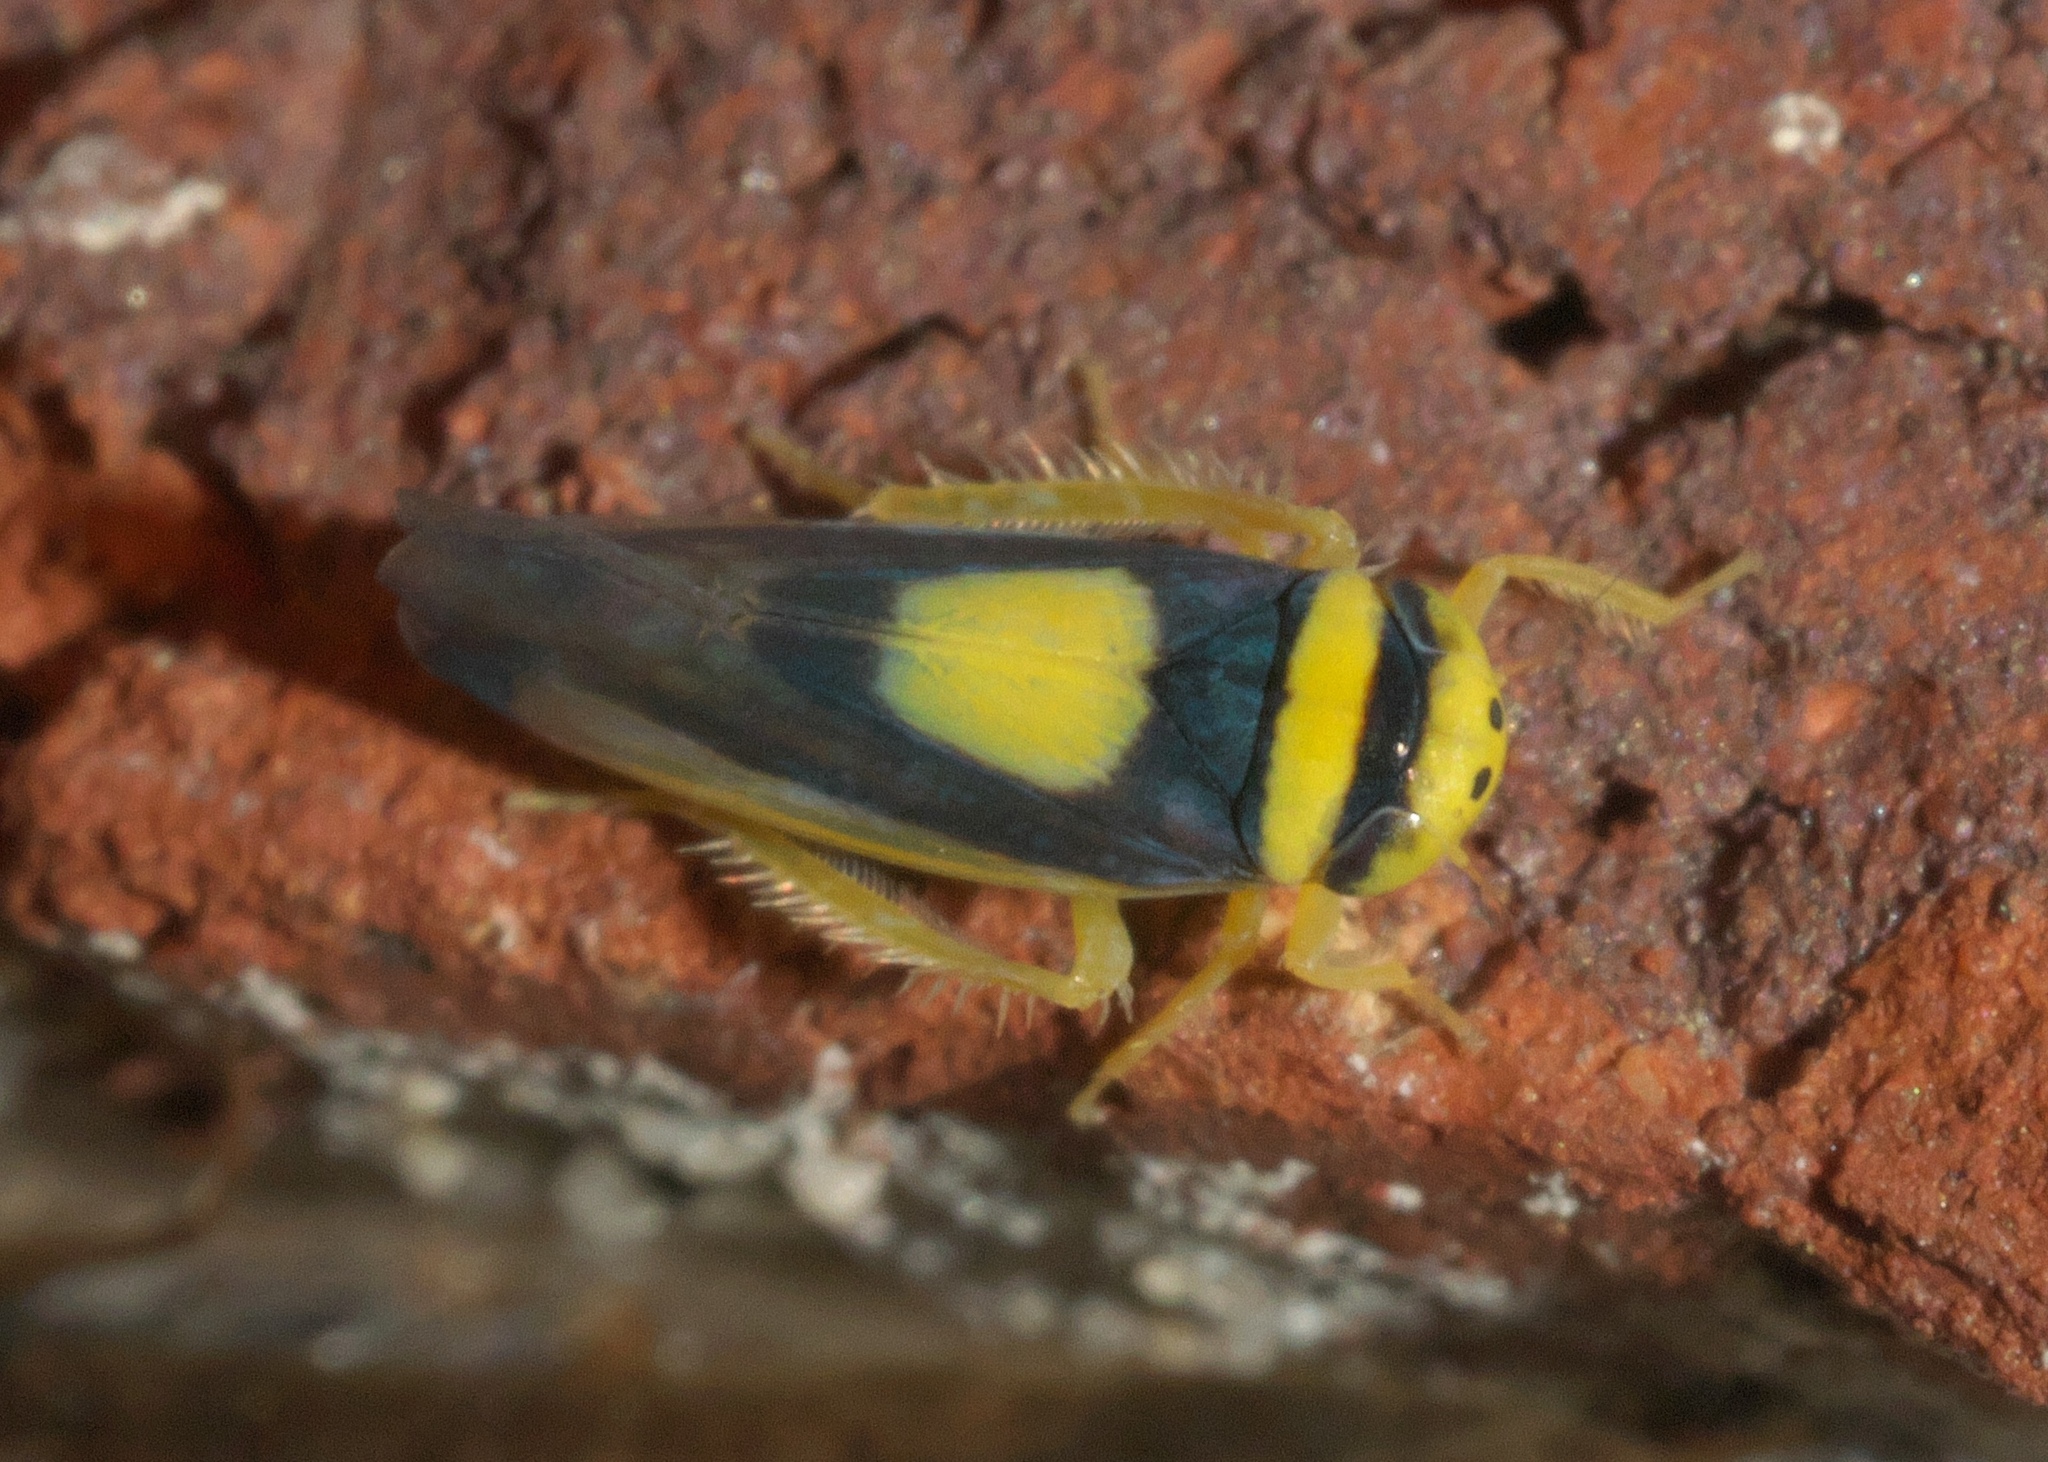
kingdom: Animalia
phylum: Arthropoda
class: Insecta
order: Hemiptera
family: Cicadellidae
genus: Colladonus
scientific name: Colladonus clitellarius
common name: The saddleback leafhopper
